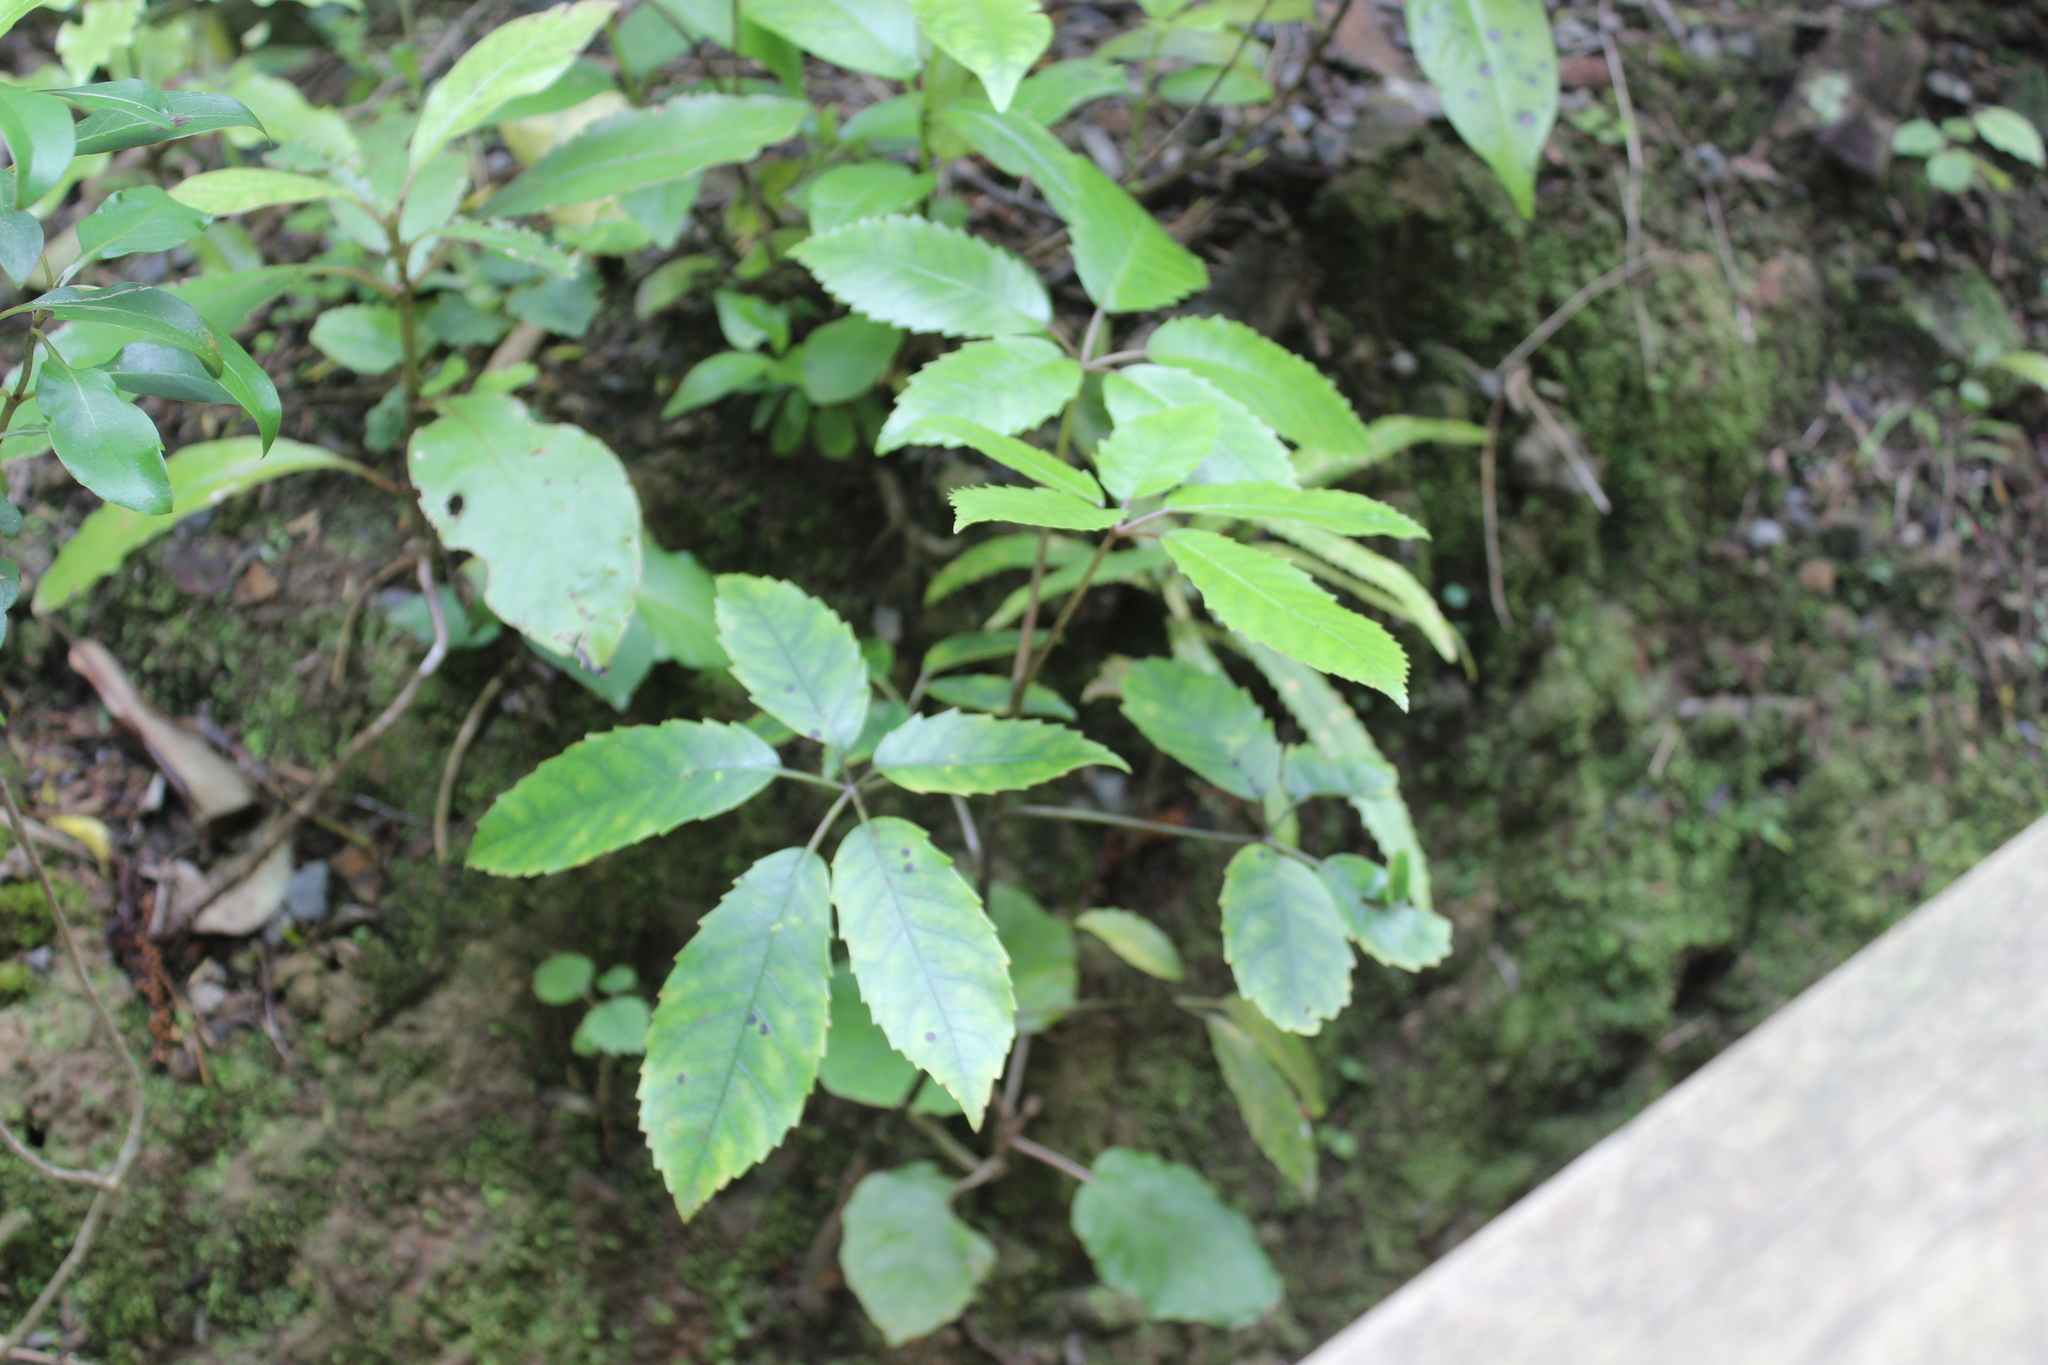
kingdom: Plantae
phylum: Tracheophyta
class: Magnoliopsida
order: Apiales
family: Araliaceae
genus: Neopanax
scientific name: Neopanax arboreus
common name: Five-fingers
